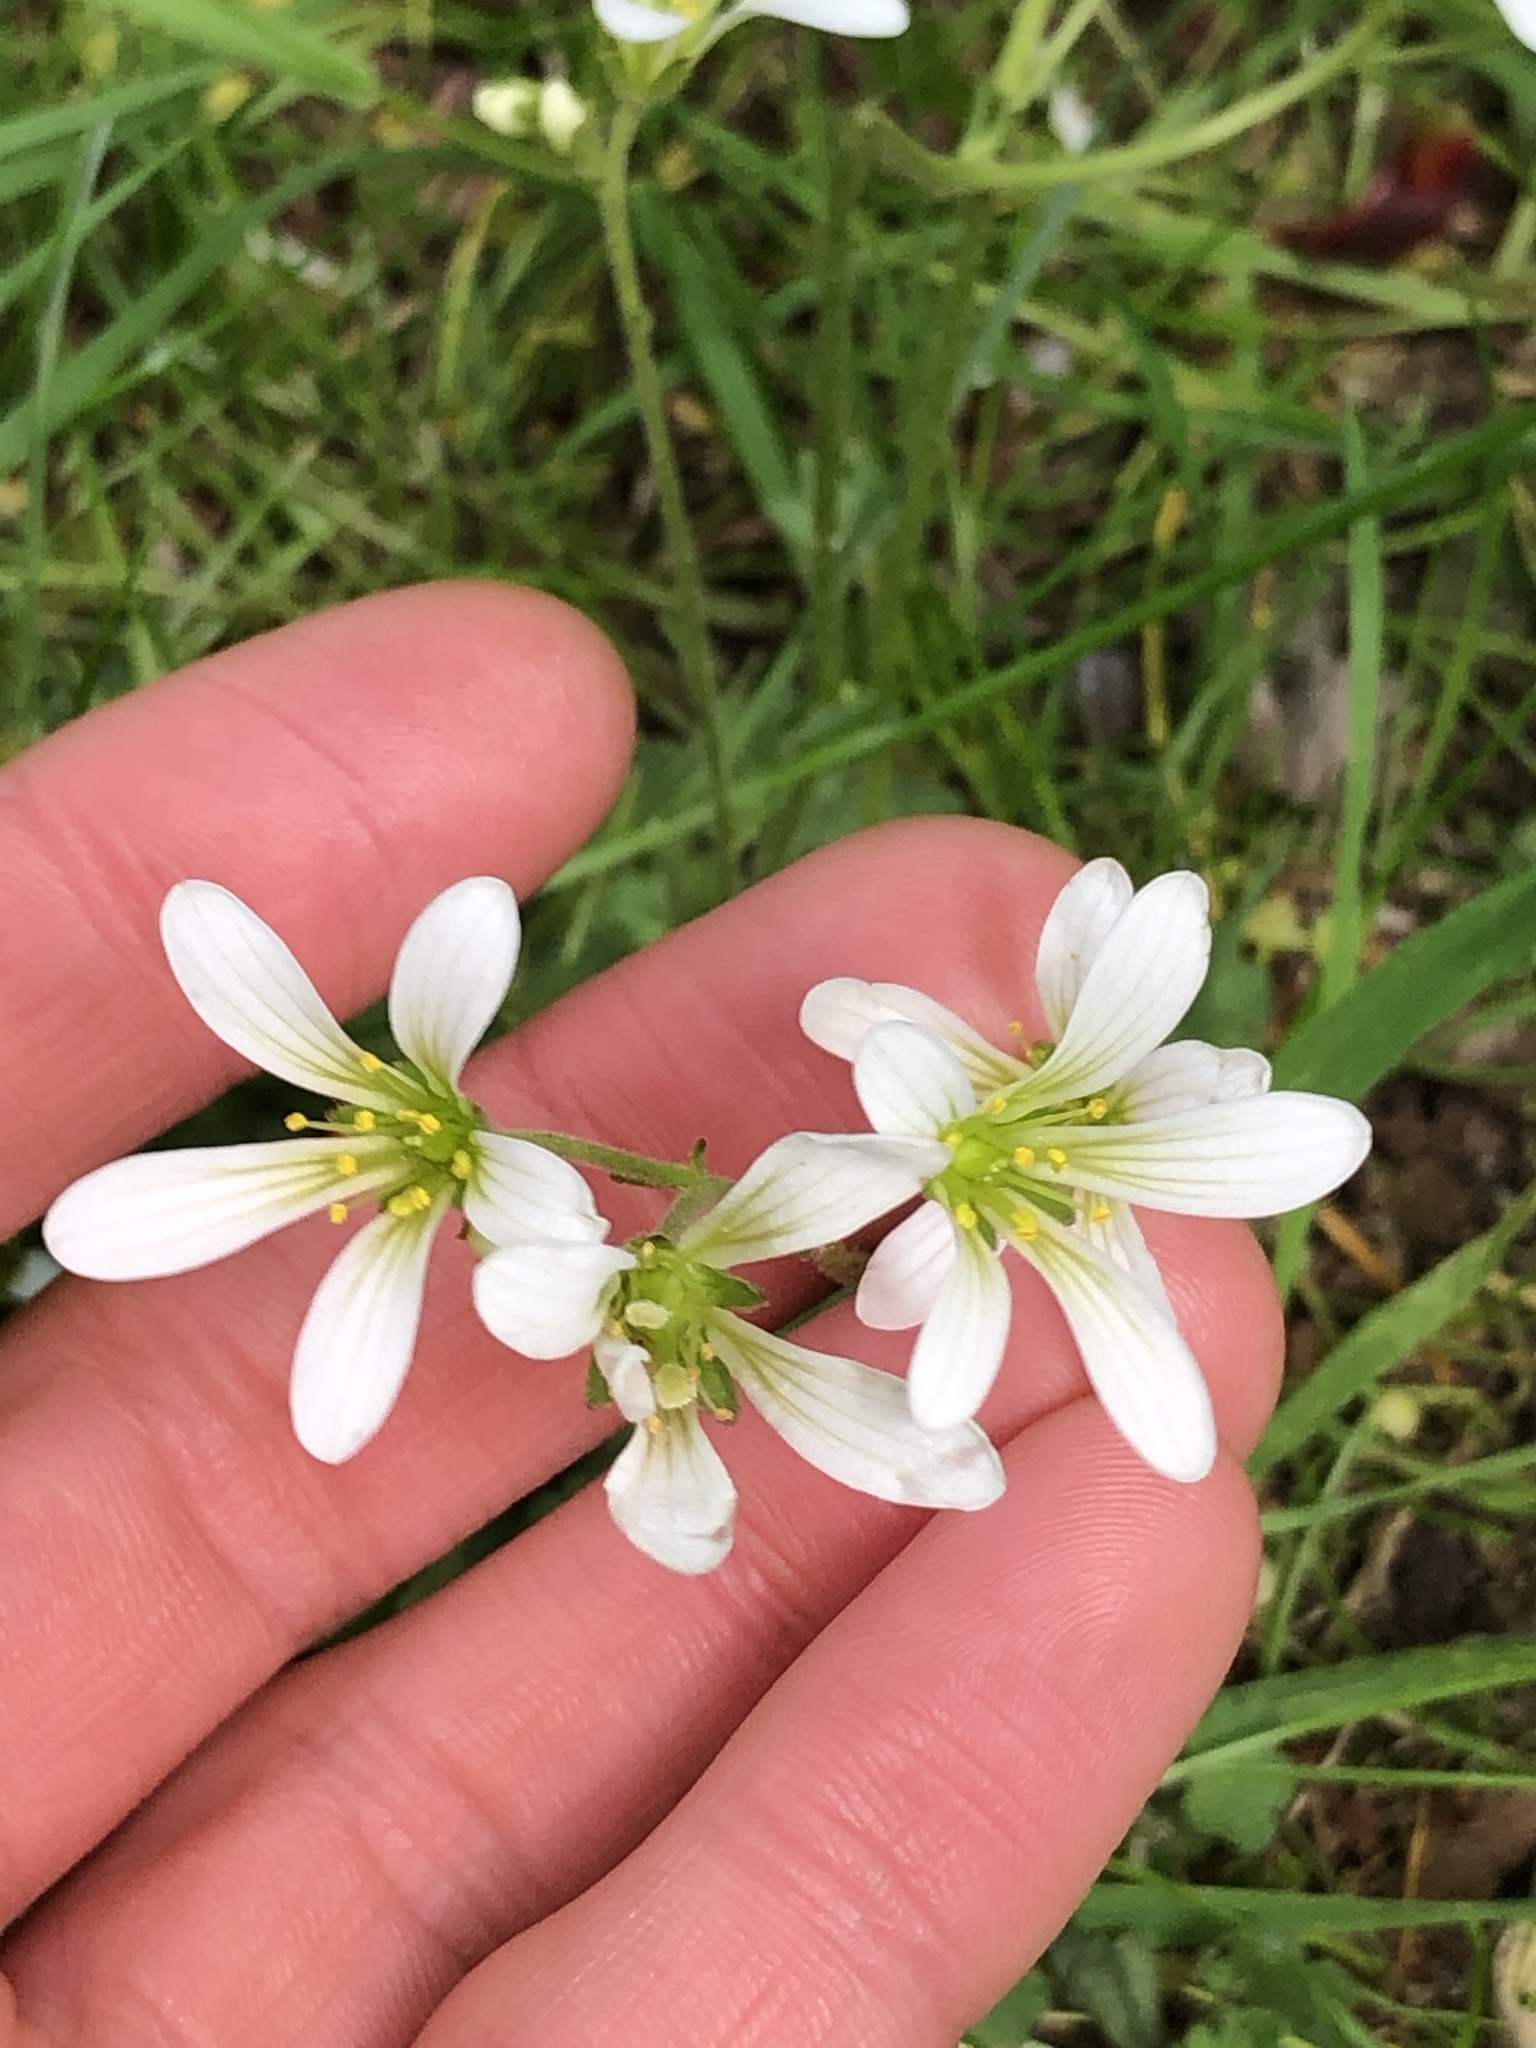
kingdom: Plantae
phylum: Tracheophyta
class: Magnoliopsida
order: Saxifragales
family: Saxifragaceae
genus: Saxifraga
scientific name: Saxifraga granulata
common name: Meadow saxifrage
